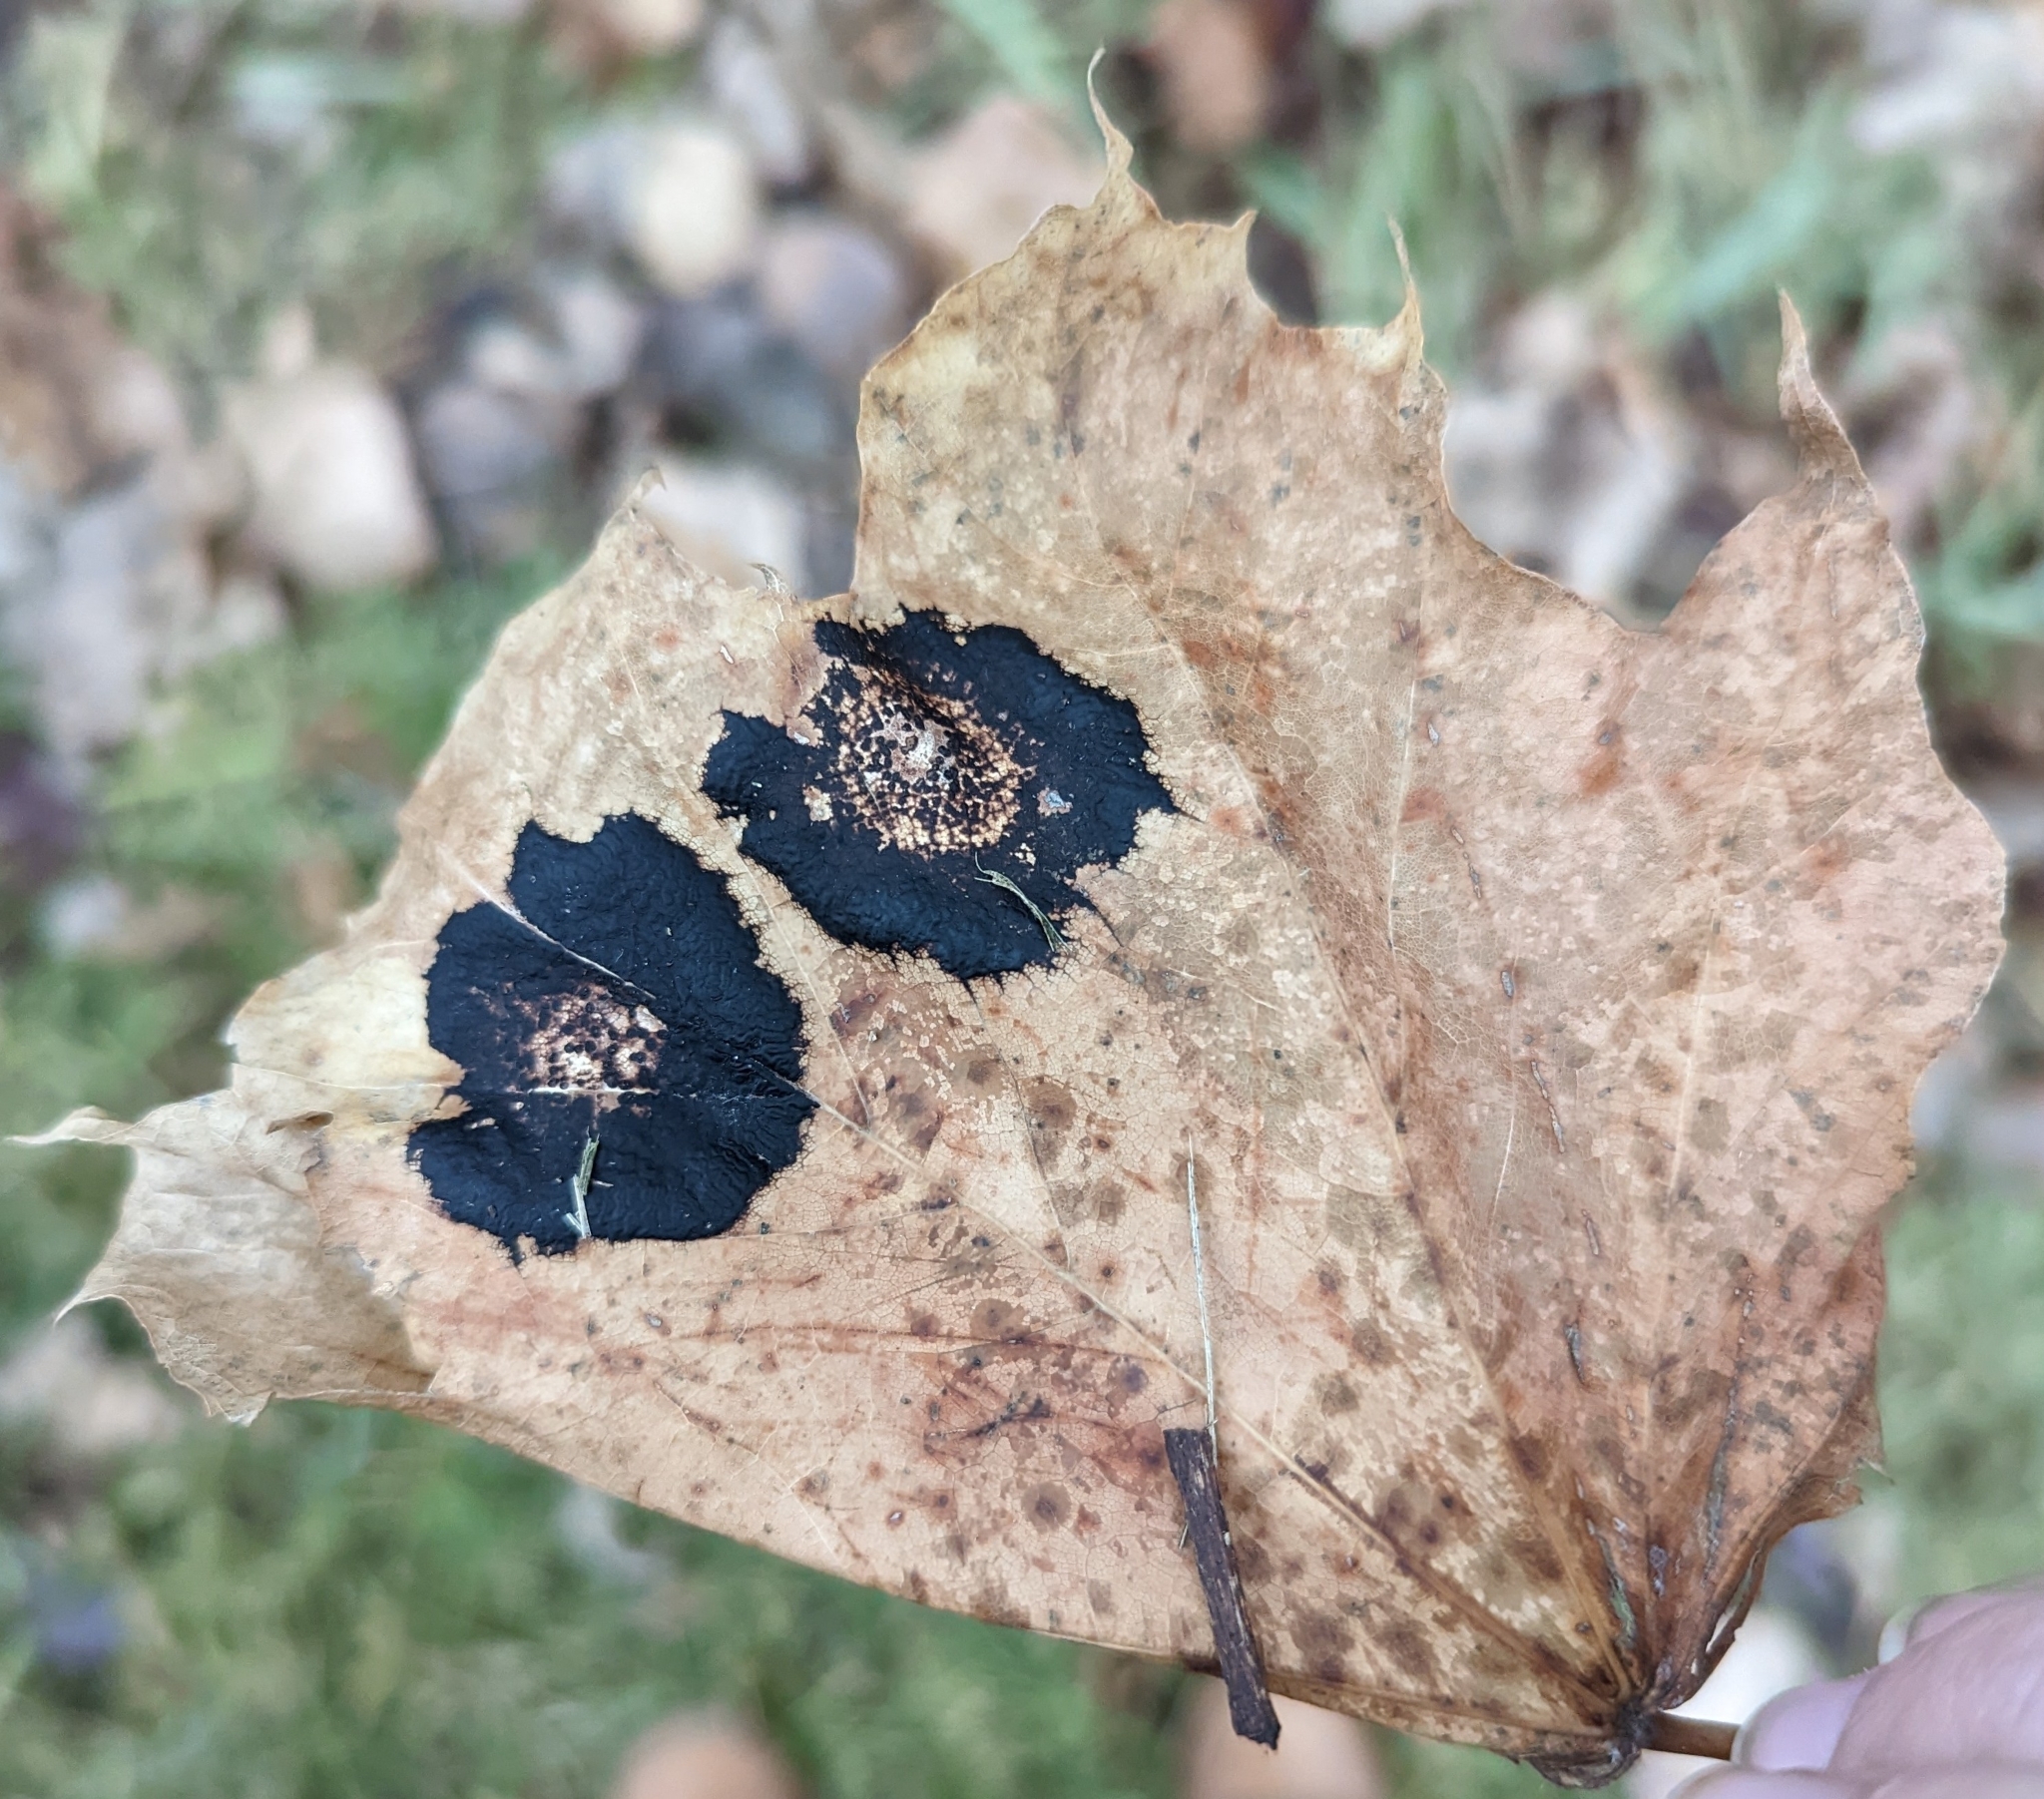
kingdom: Fungi
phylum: Ascomycota
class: Leotiomycetes
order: Rhytismatales
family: Rhytismataceae
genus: Rhytisma
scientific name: Rhytisma acerinum
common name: European tar spot
